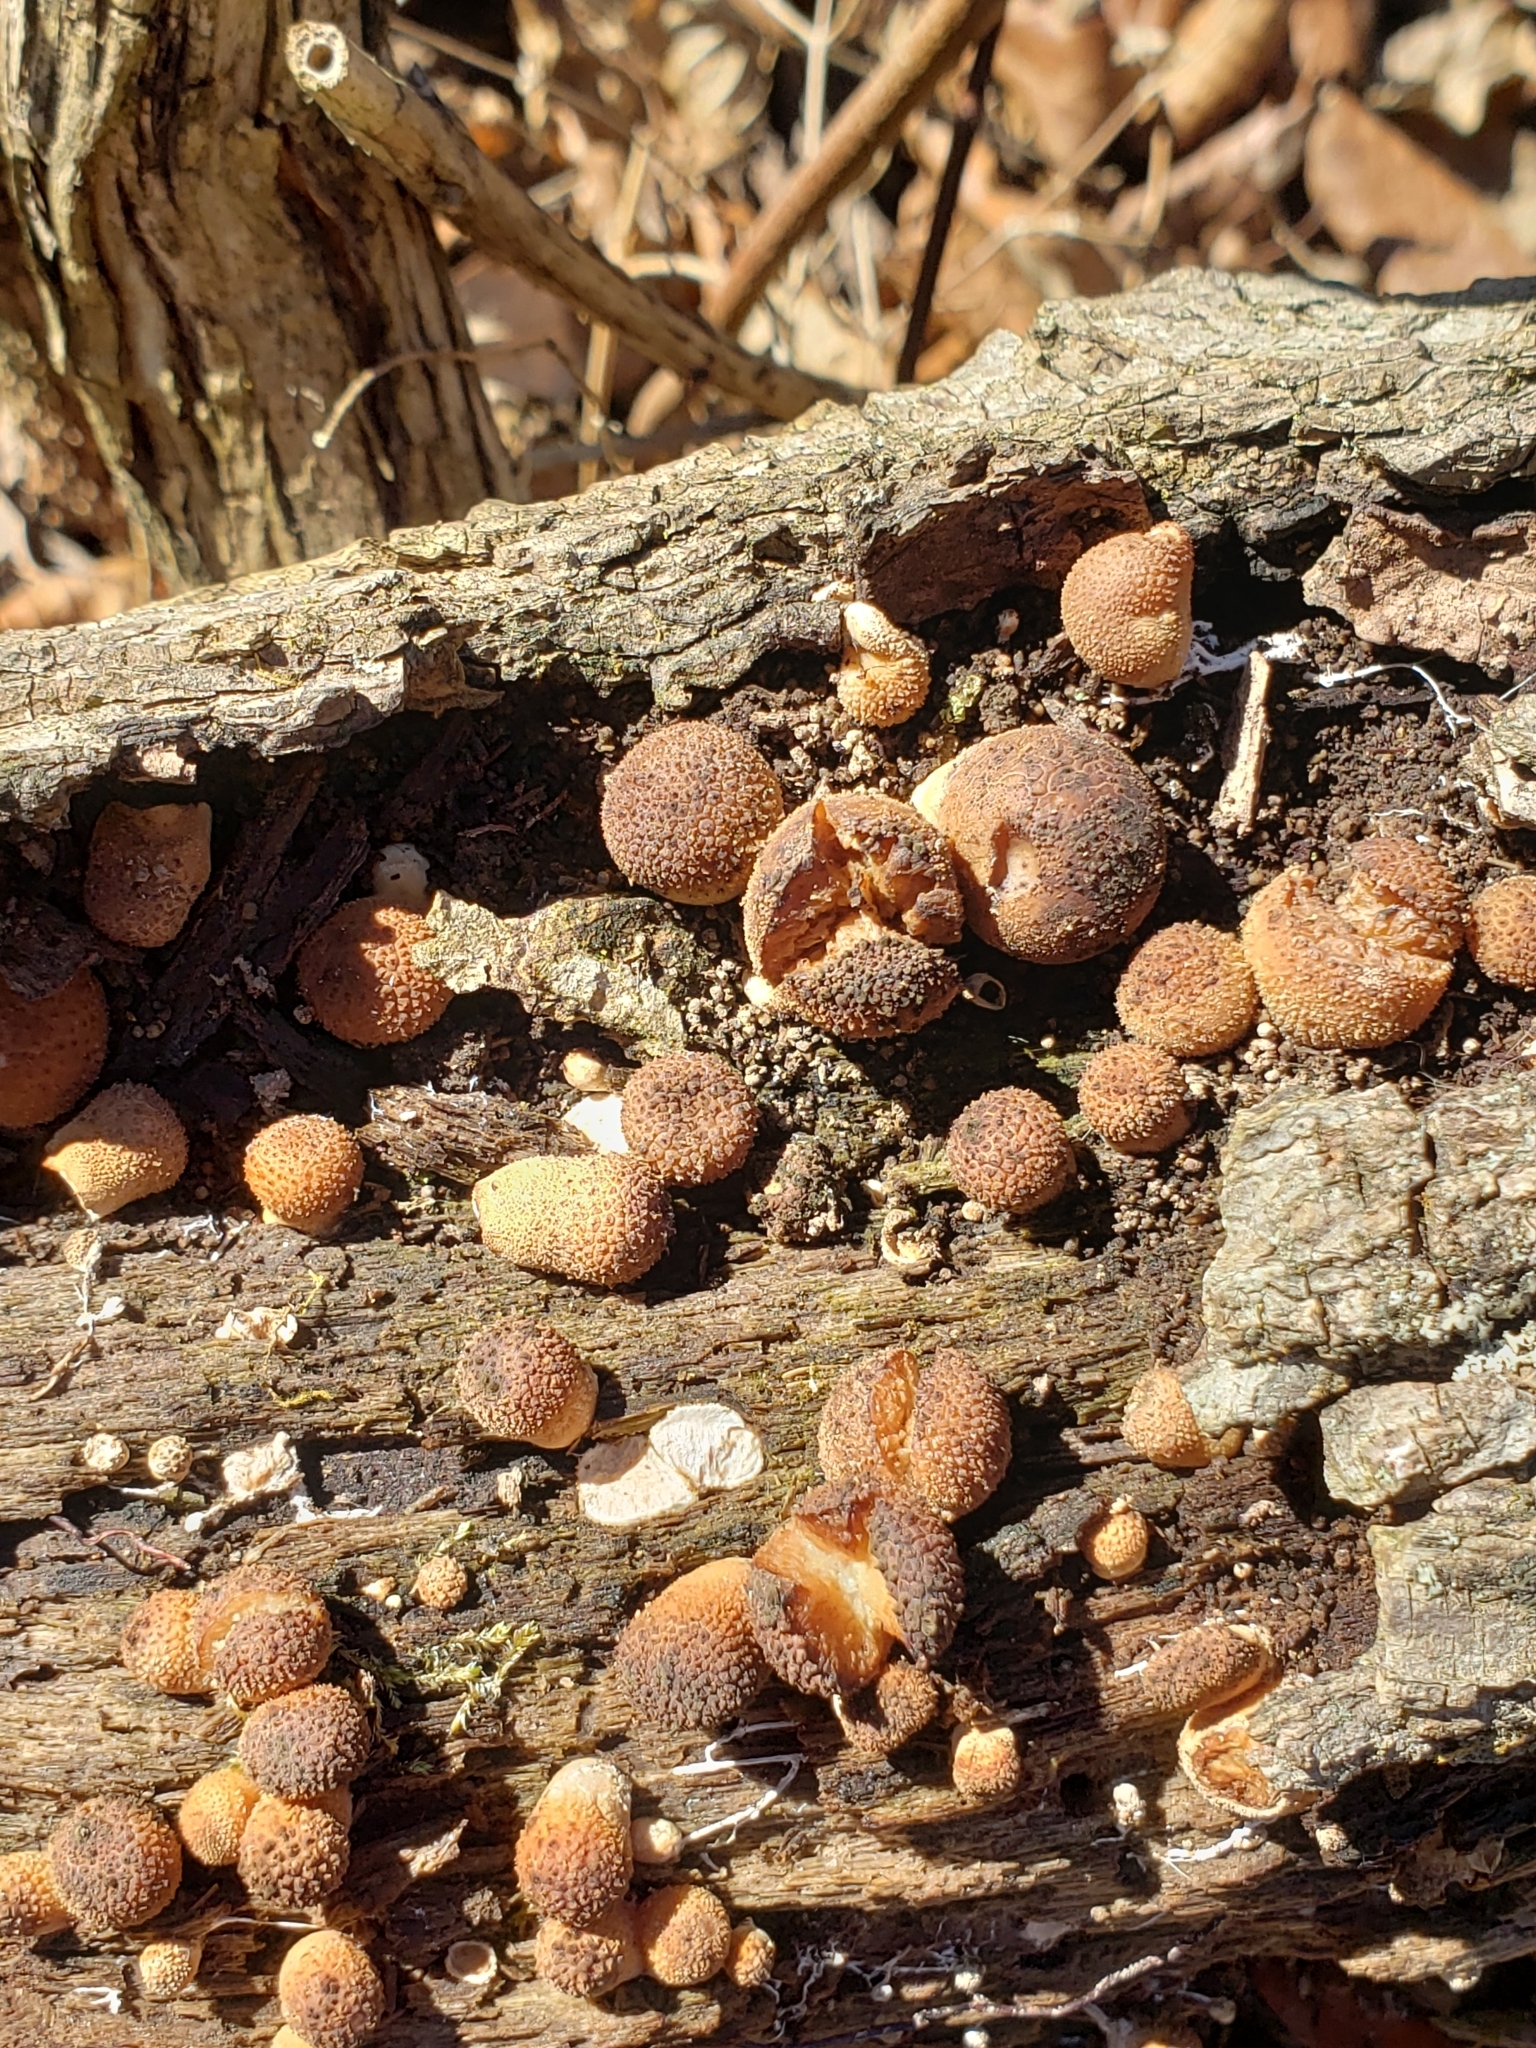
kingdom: Fungi
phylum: Basidiomycota
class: Agaricomycetes
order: Agaricales
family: Lycoperdaceae
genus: Apioperdon
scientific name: Apioperdon pyriforme
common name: Pear-shaped puffball
